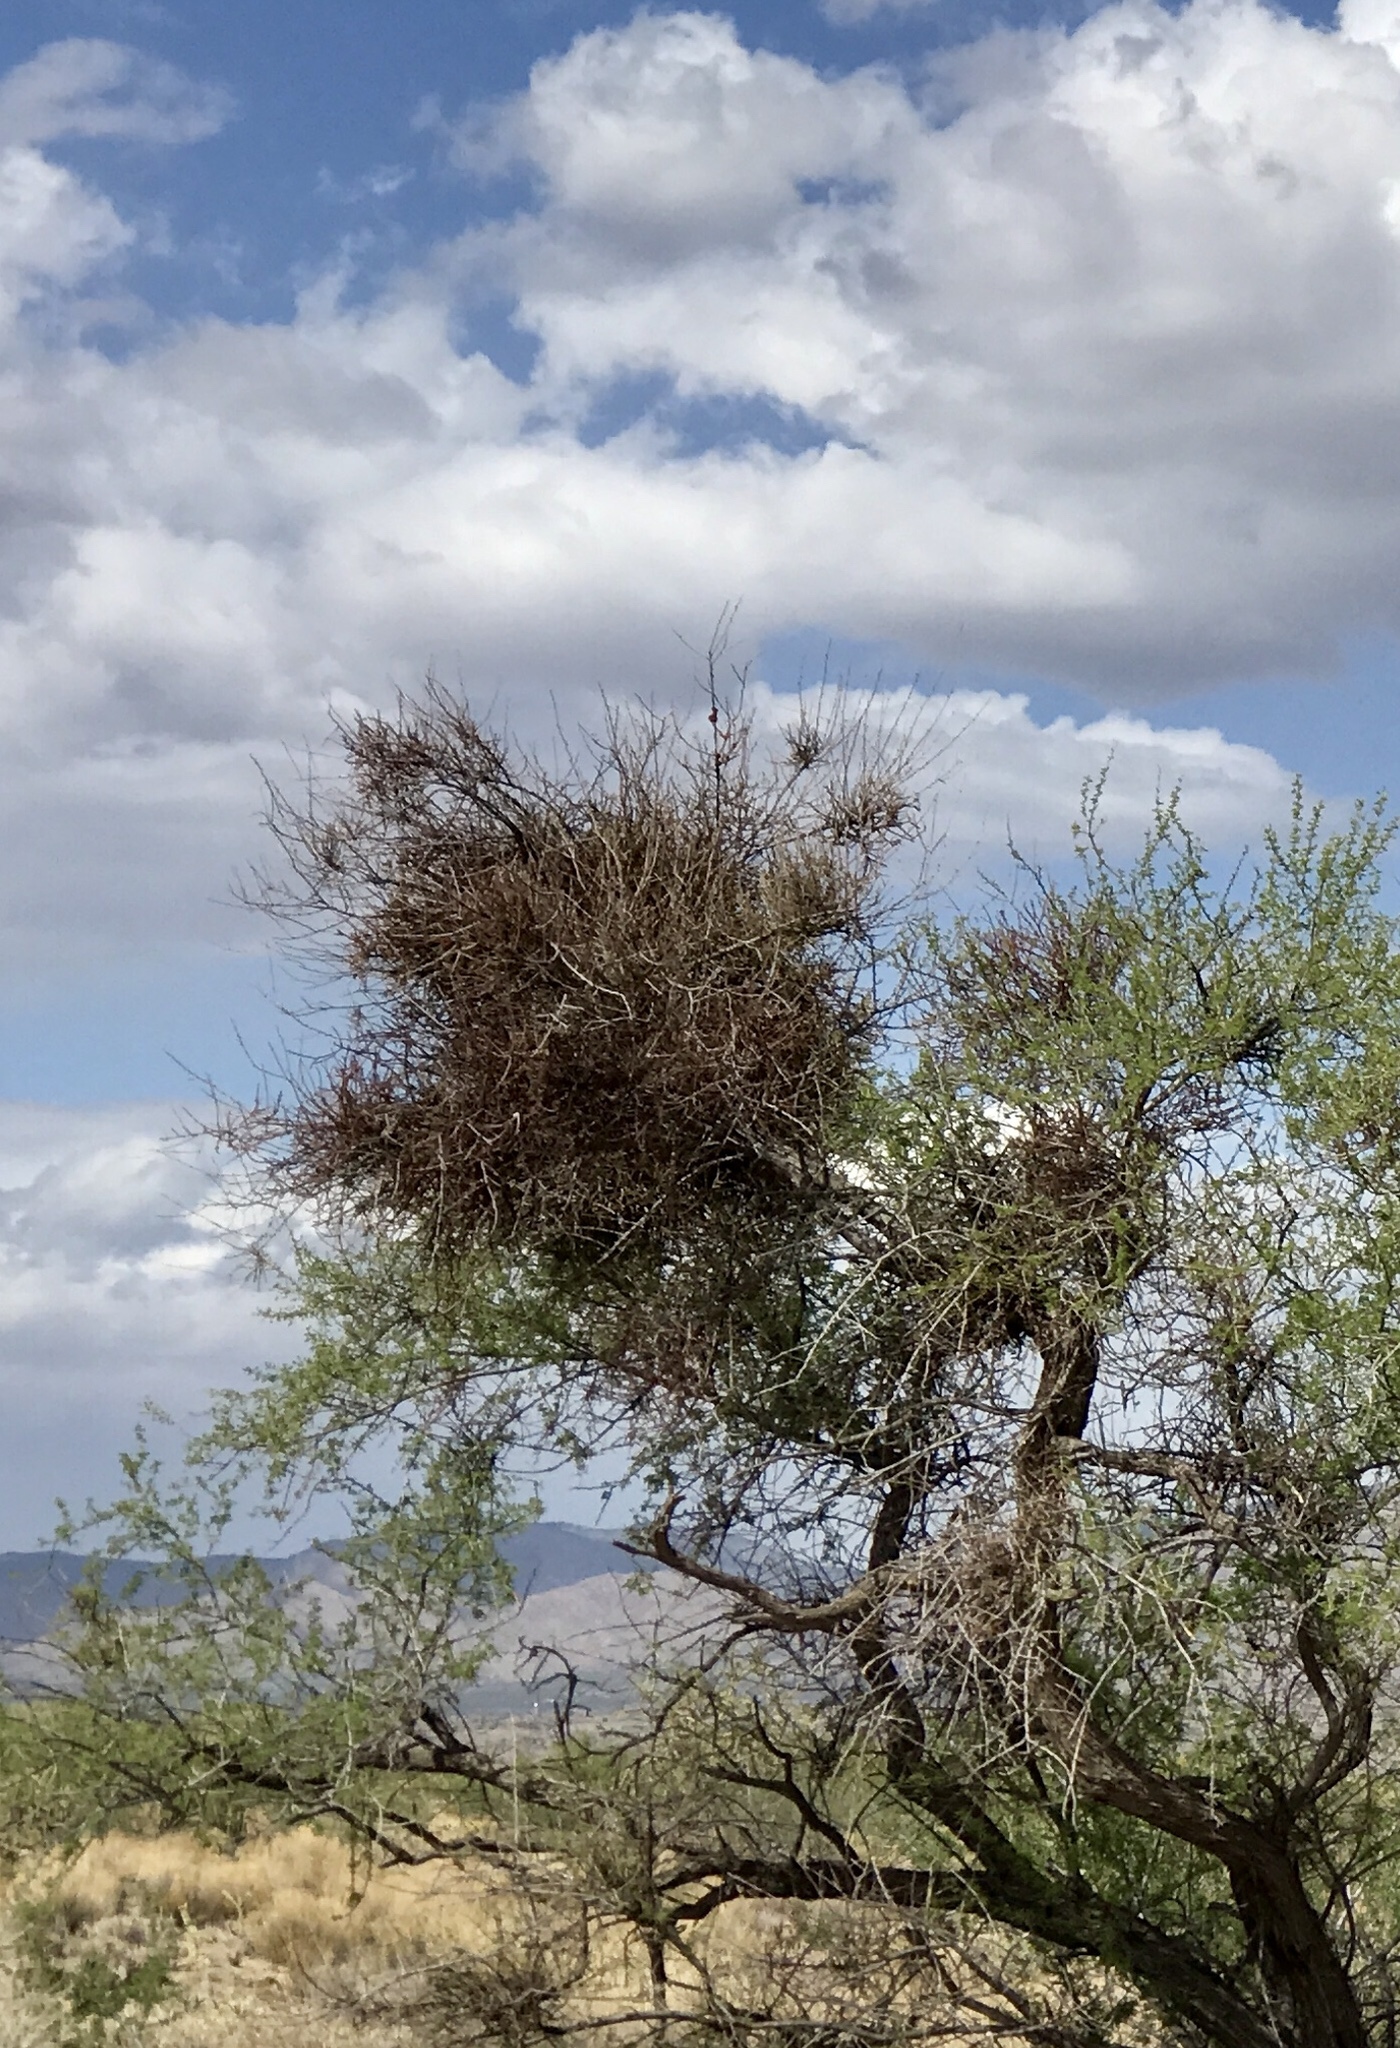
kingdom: Plantae
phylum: Tracheophyta
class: Magnoliopsida
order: Santalales
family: Viscaceae
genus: Phoradendron
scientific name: Phoradendron californicum
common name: Acacia mistletoe
